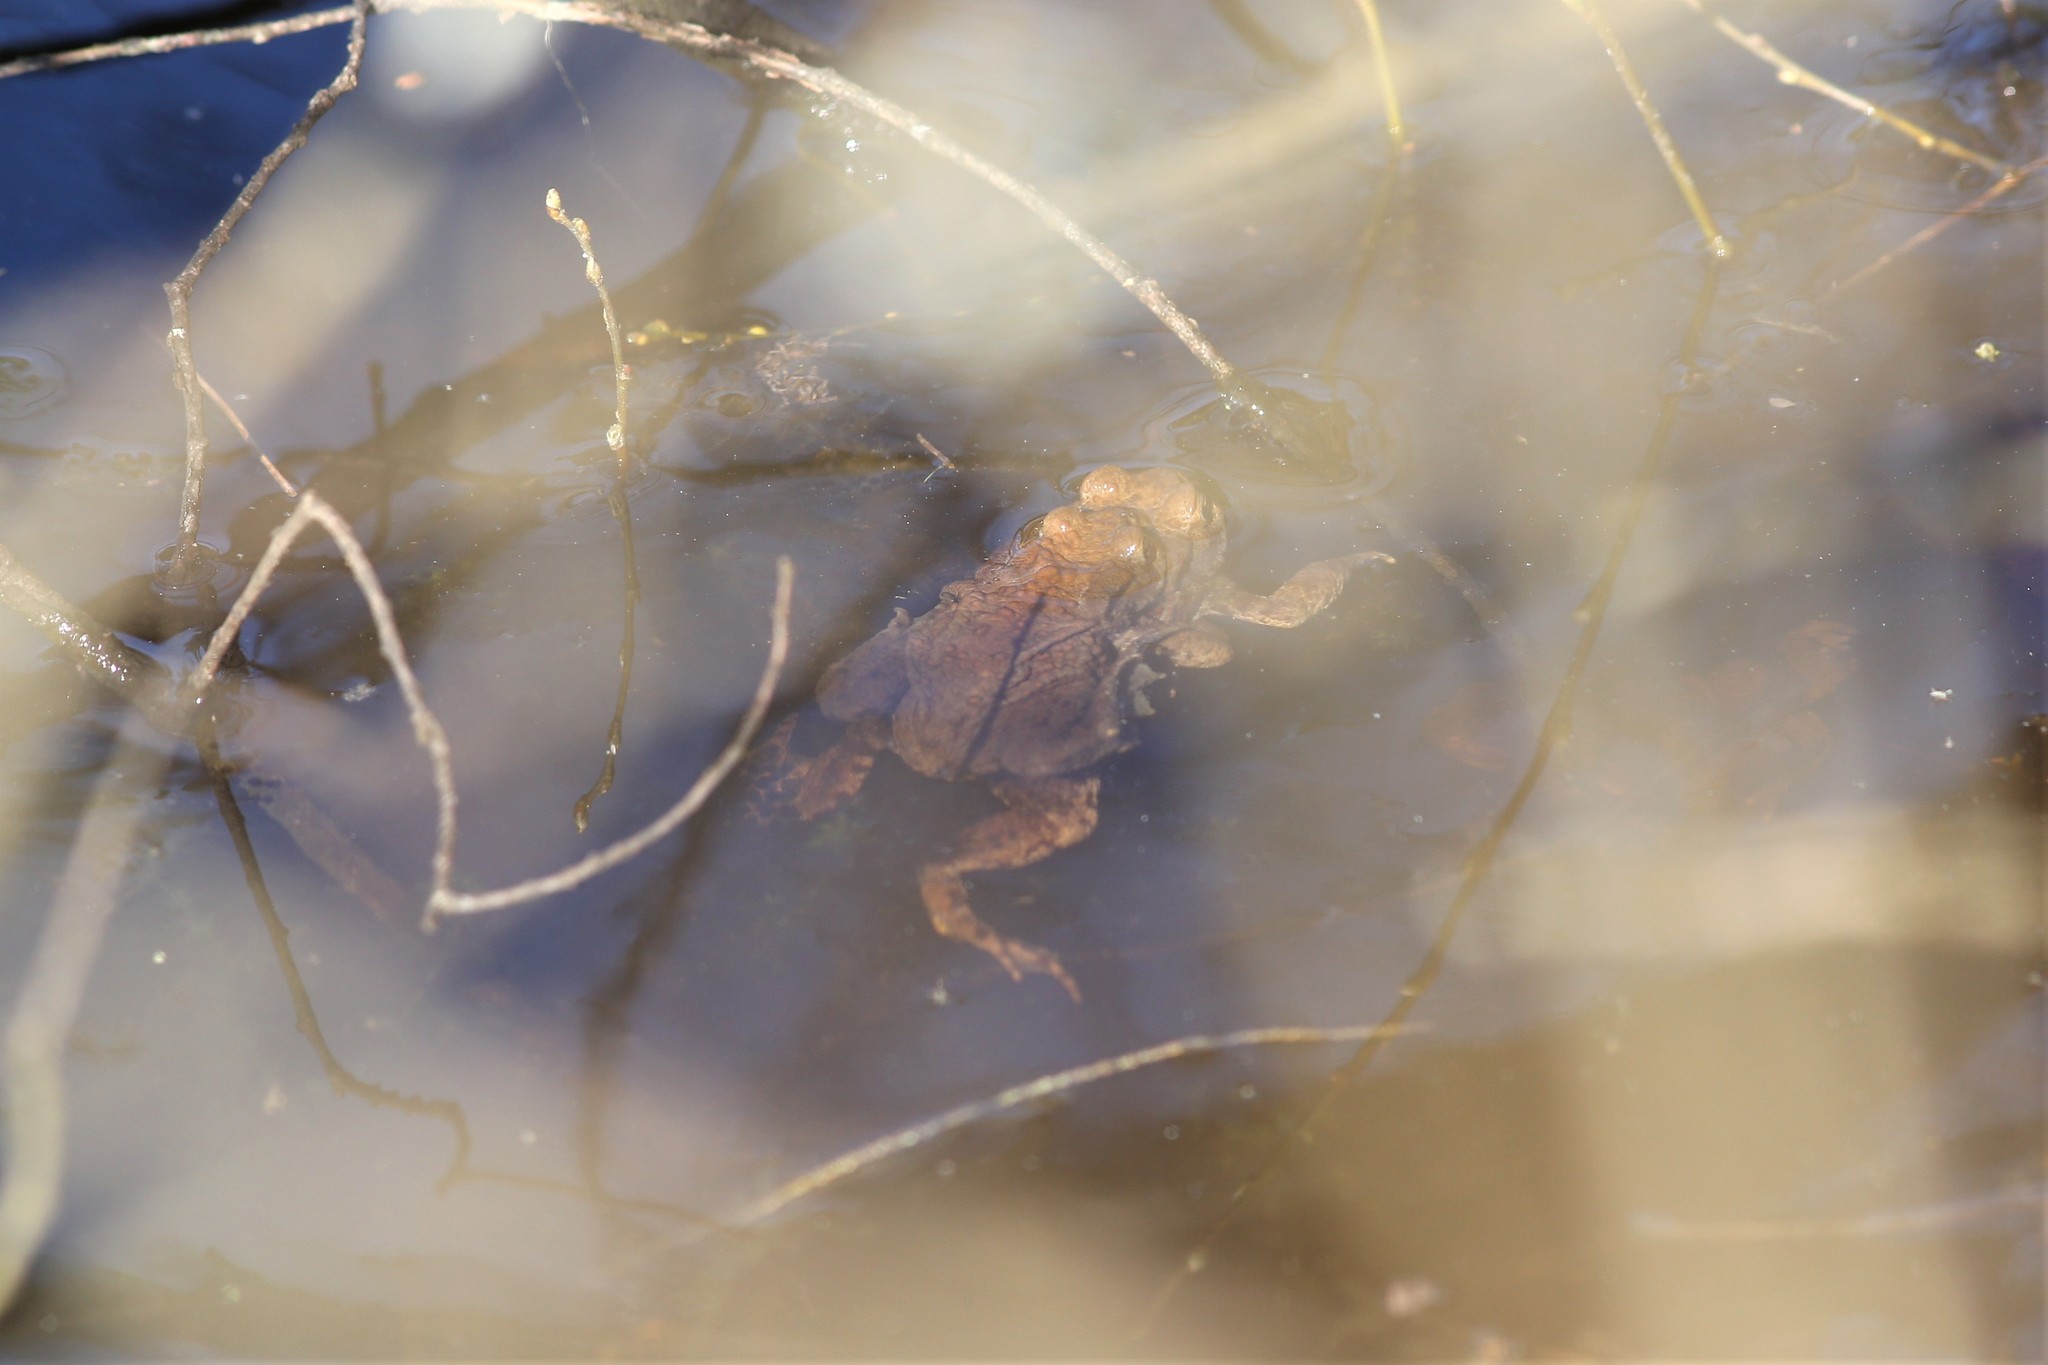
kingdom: Animalia
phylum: Chordata
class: Amphibia
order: Anura
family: Bufonidae
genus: Bufo
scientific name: Bufo bufo
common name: Common toad
